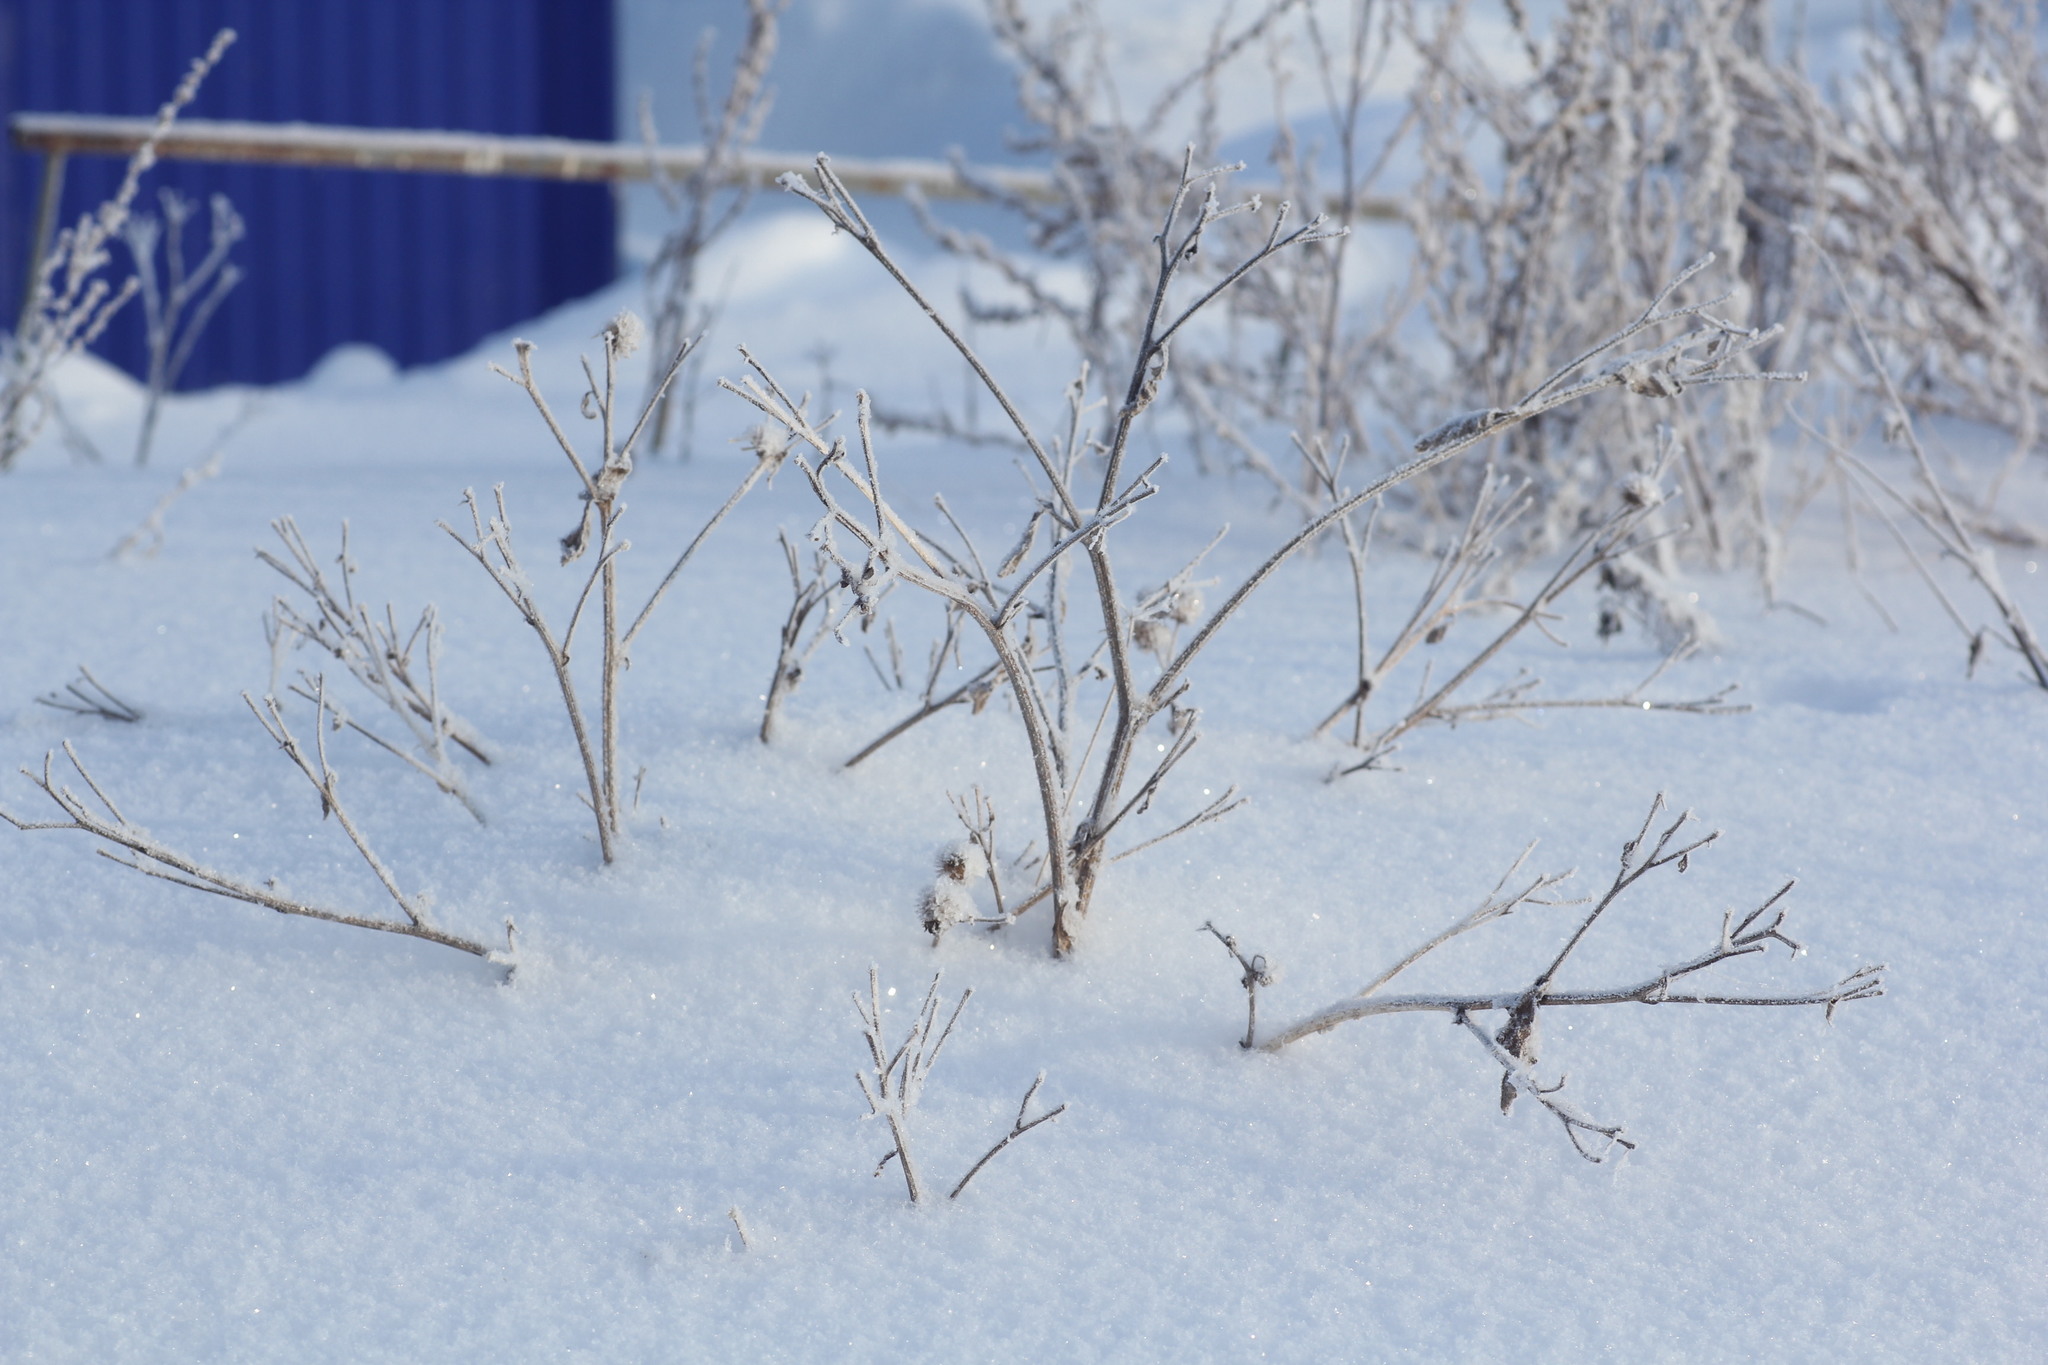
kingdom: Plantae
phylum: Tracheophyta
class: Magnoliopsida
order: Asterales
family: Asteraceae
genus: Arctium
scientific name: Arctium tomentosum
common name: Woolly burdock
